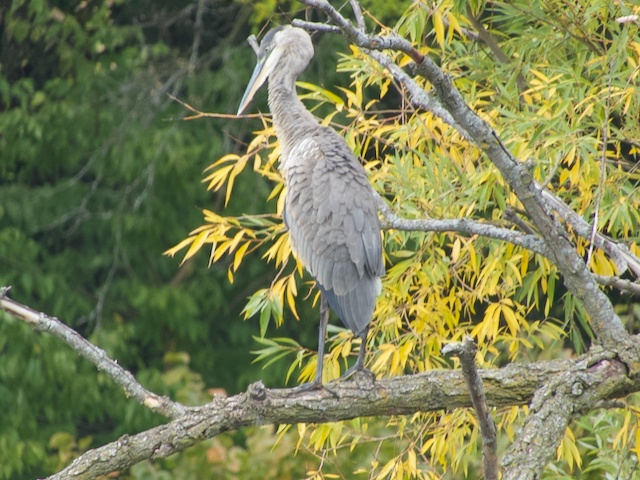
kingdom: Animalia
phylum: Chordata
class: Aves
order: Pelecaniformes
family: Ardeidae
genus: Ardea
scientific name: Ardea herodias
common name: Great blue heron
